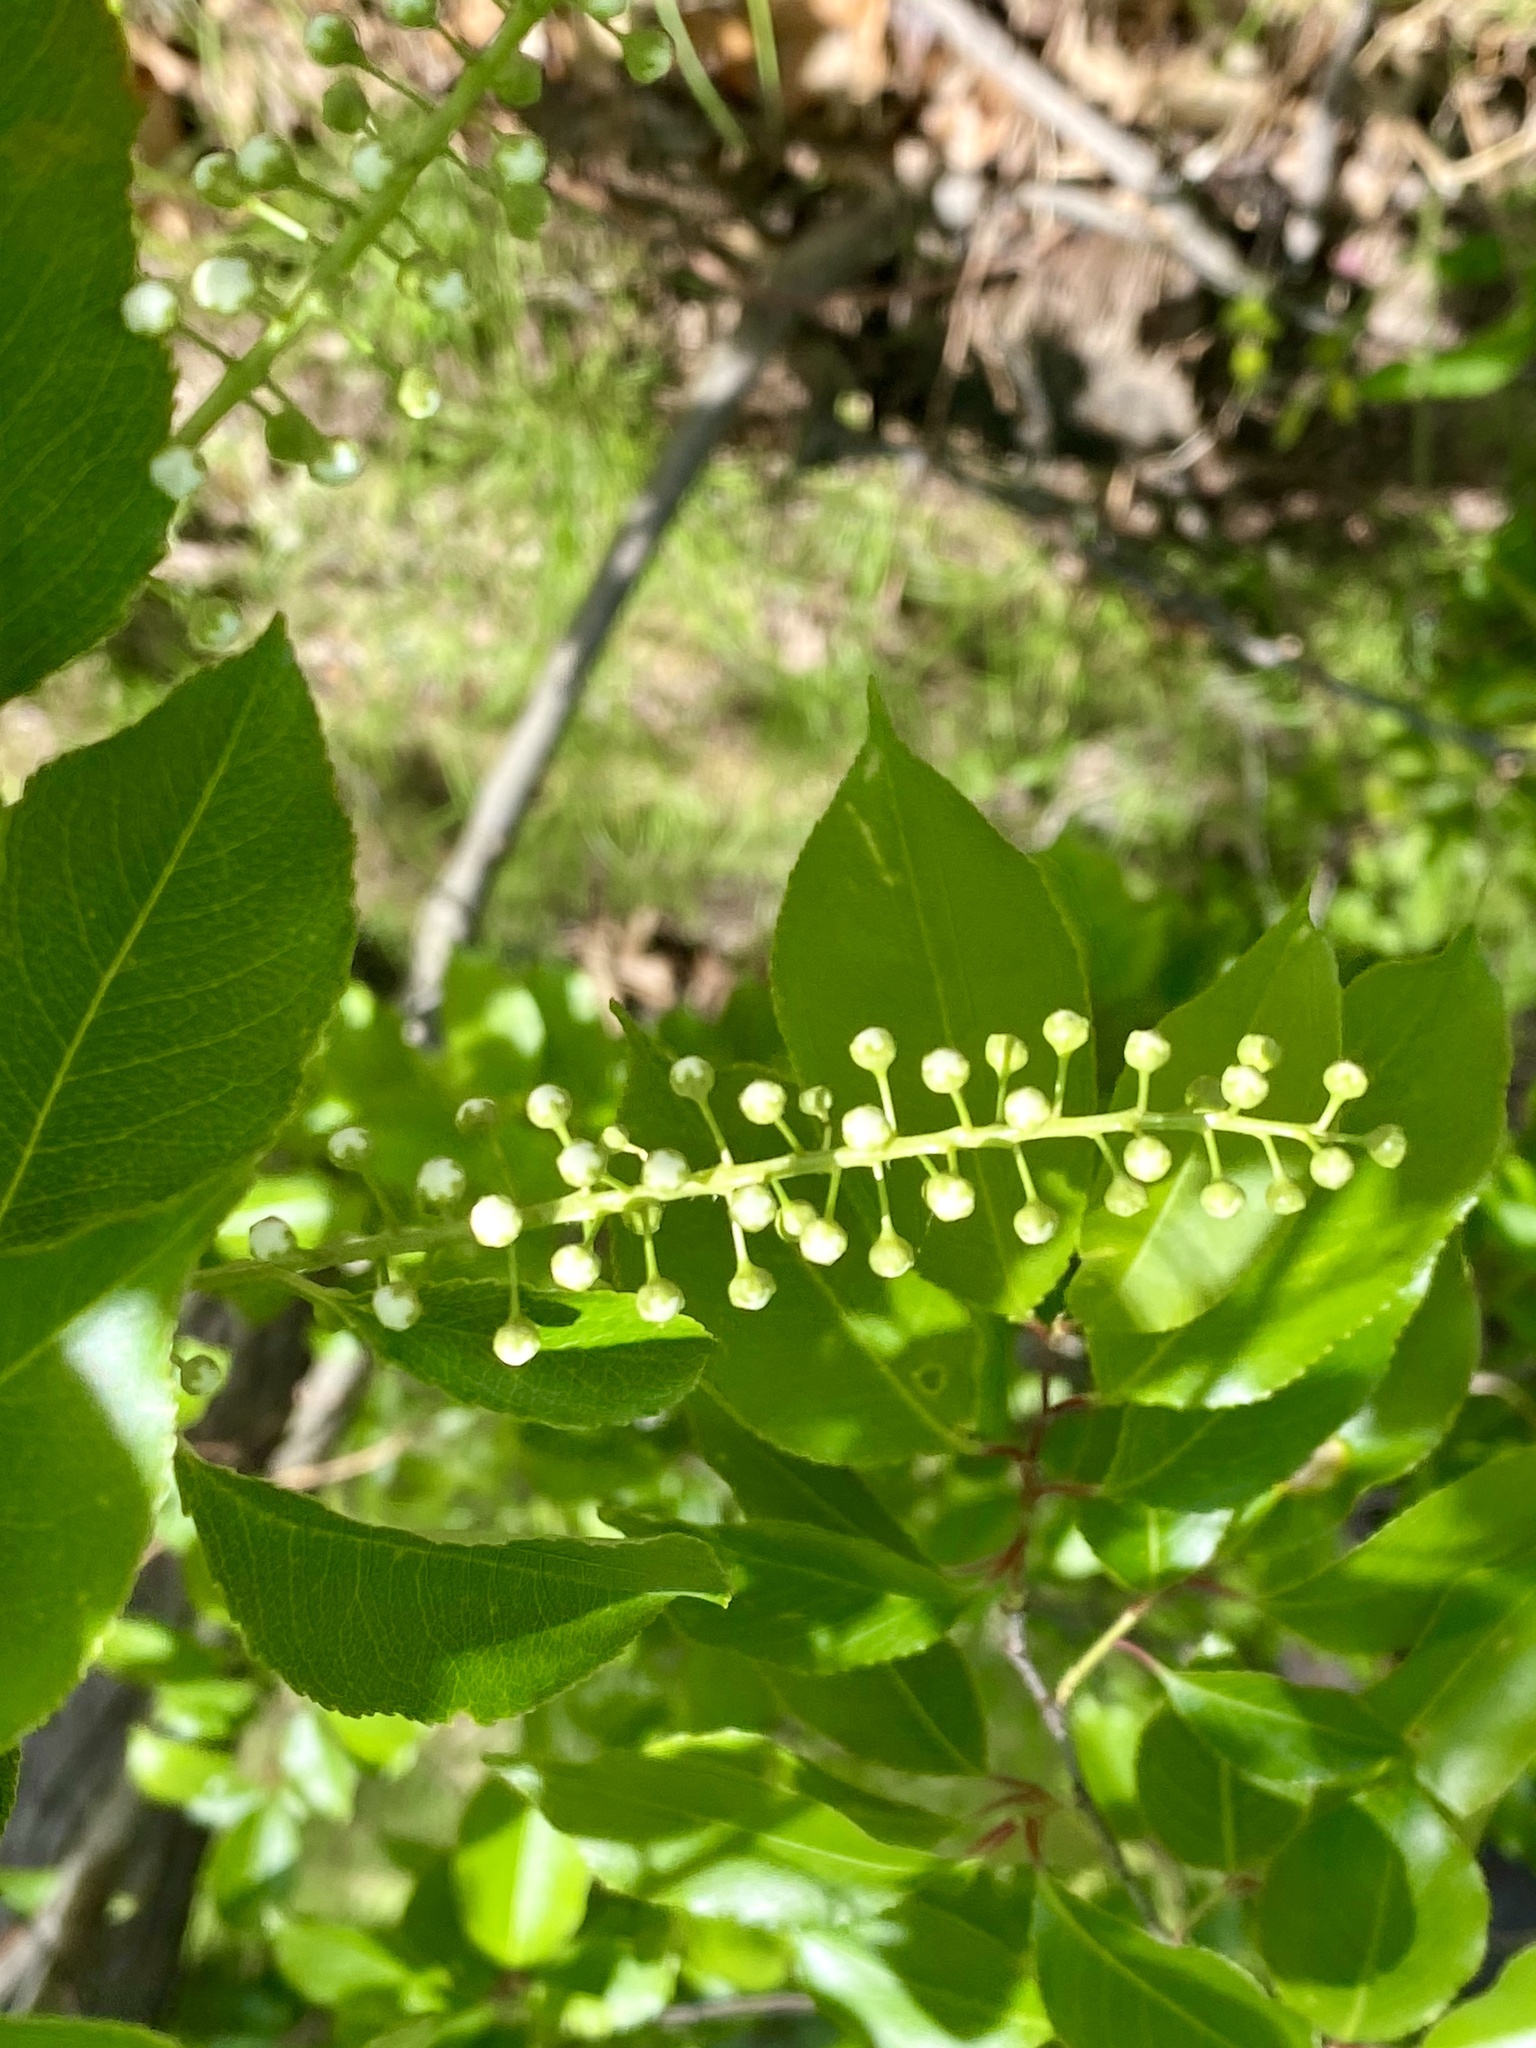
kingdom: Plantae
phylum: Tracheophyta
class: Magnoliopsida
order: Rosales
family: Rosaceae
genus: Prunus
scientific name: Prunus serotina
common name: Black cherry
